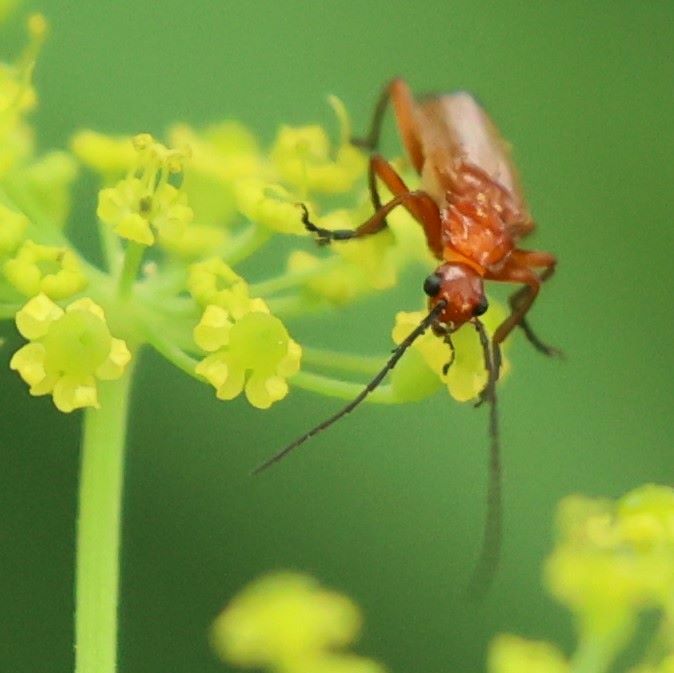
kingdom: Animalia
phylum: Arthropoda
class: Insecta
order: Coleoptera
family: Cantharidae
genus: Rhagonycha
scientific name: Rhagonycha fulva
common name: Common red soldier beetle
